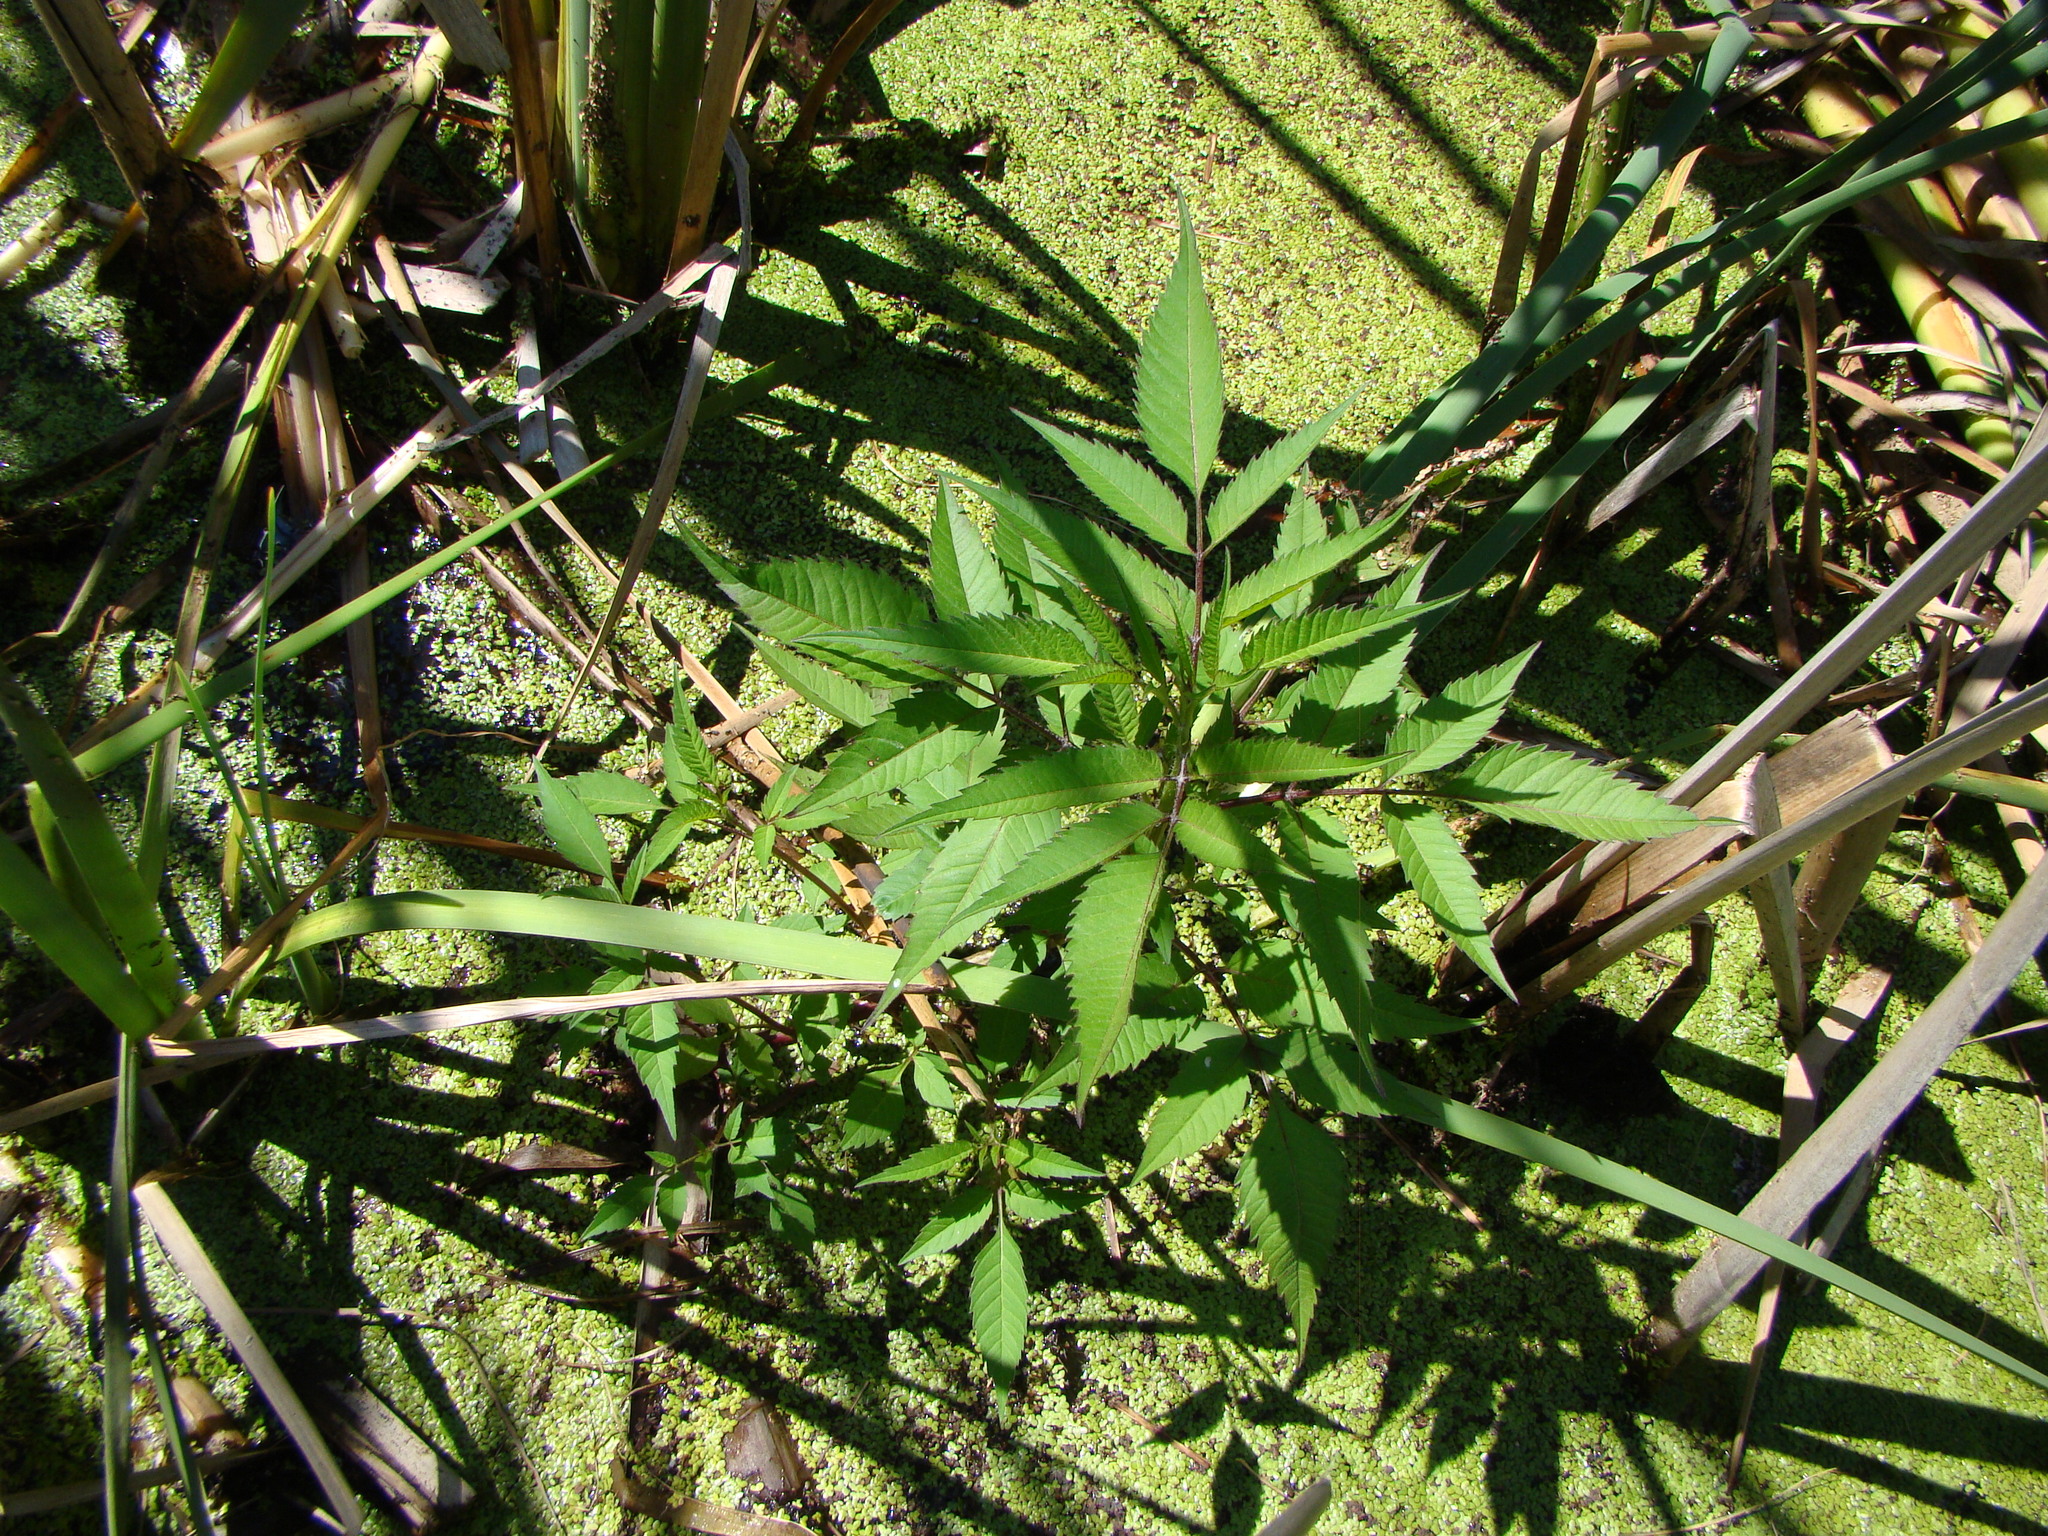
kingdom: Plantae
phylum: Tracheophyta
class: Magnoliopsida
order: Asterales
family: Asteraceae
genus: Bidens
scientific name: Bidens frondosa
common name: Beggarticks
